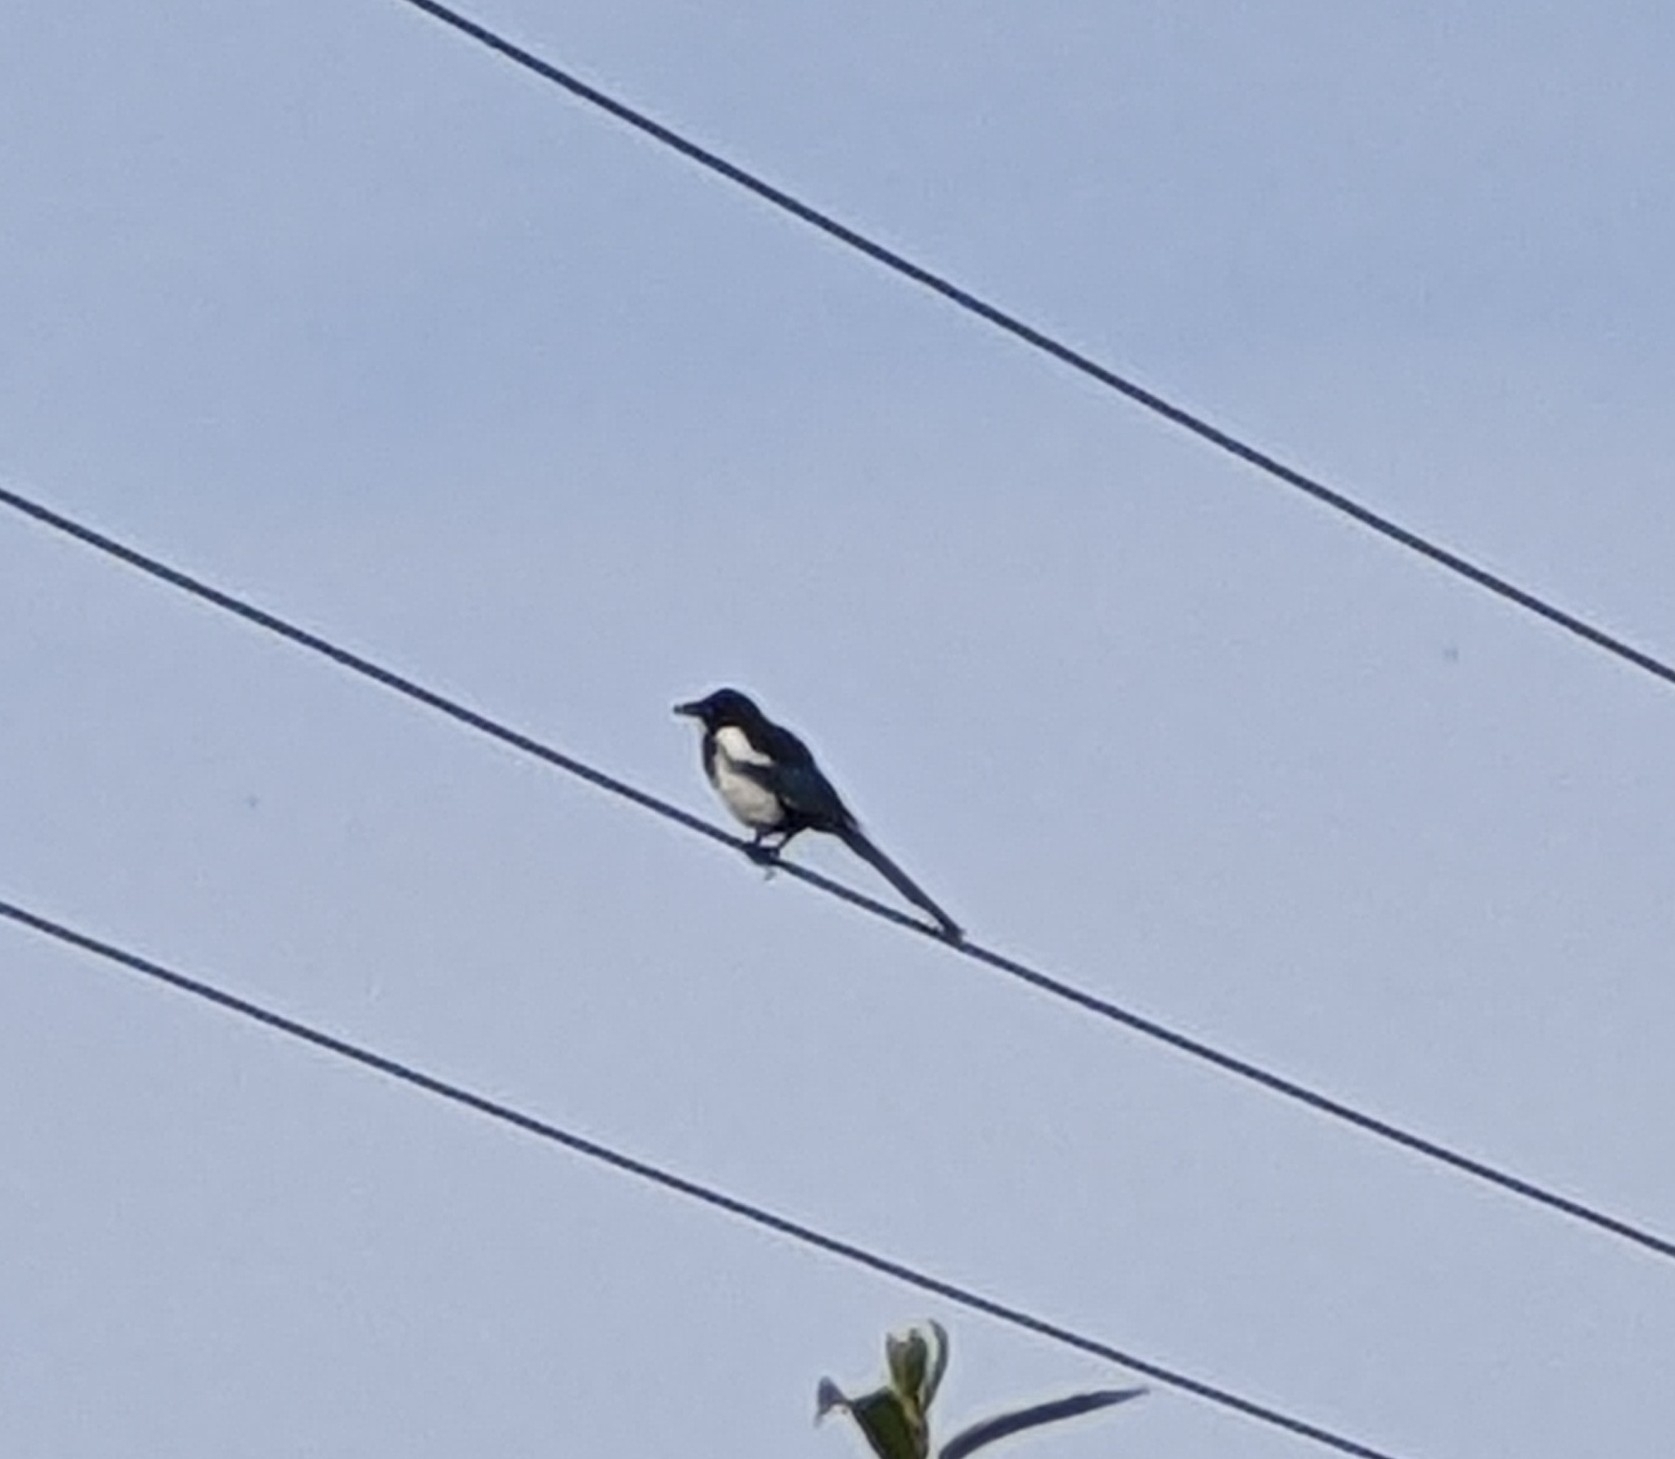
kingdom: Animalia
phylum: Chordata
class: Aves
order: Passeriformes
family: Corvidae
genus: Pica
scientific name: Pica pica
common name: Eurasian magpie
